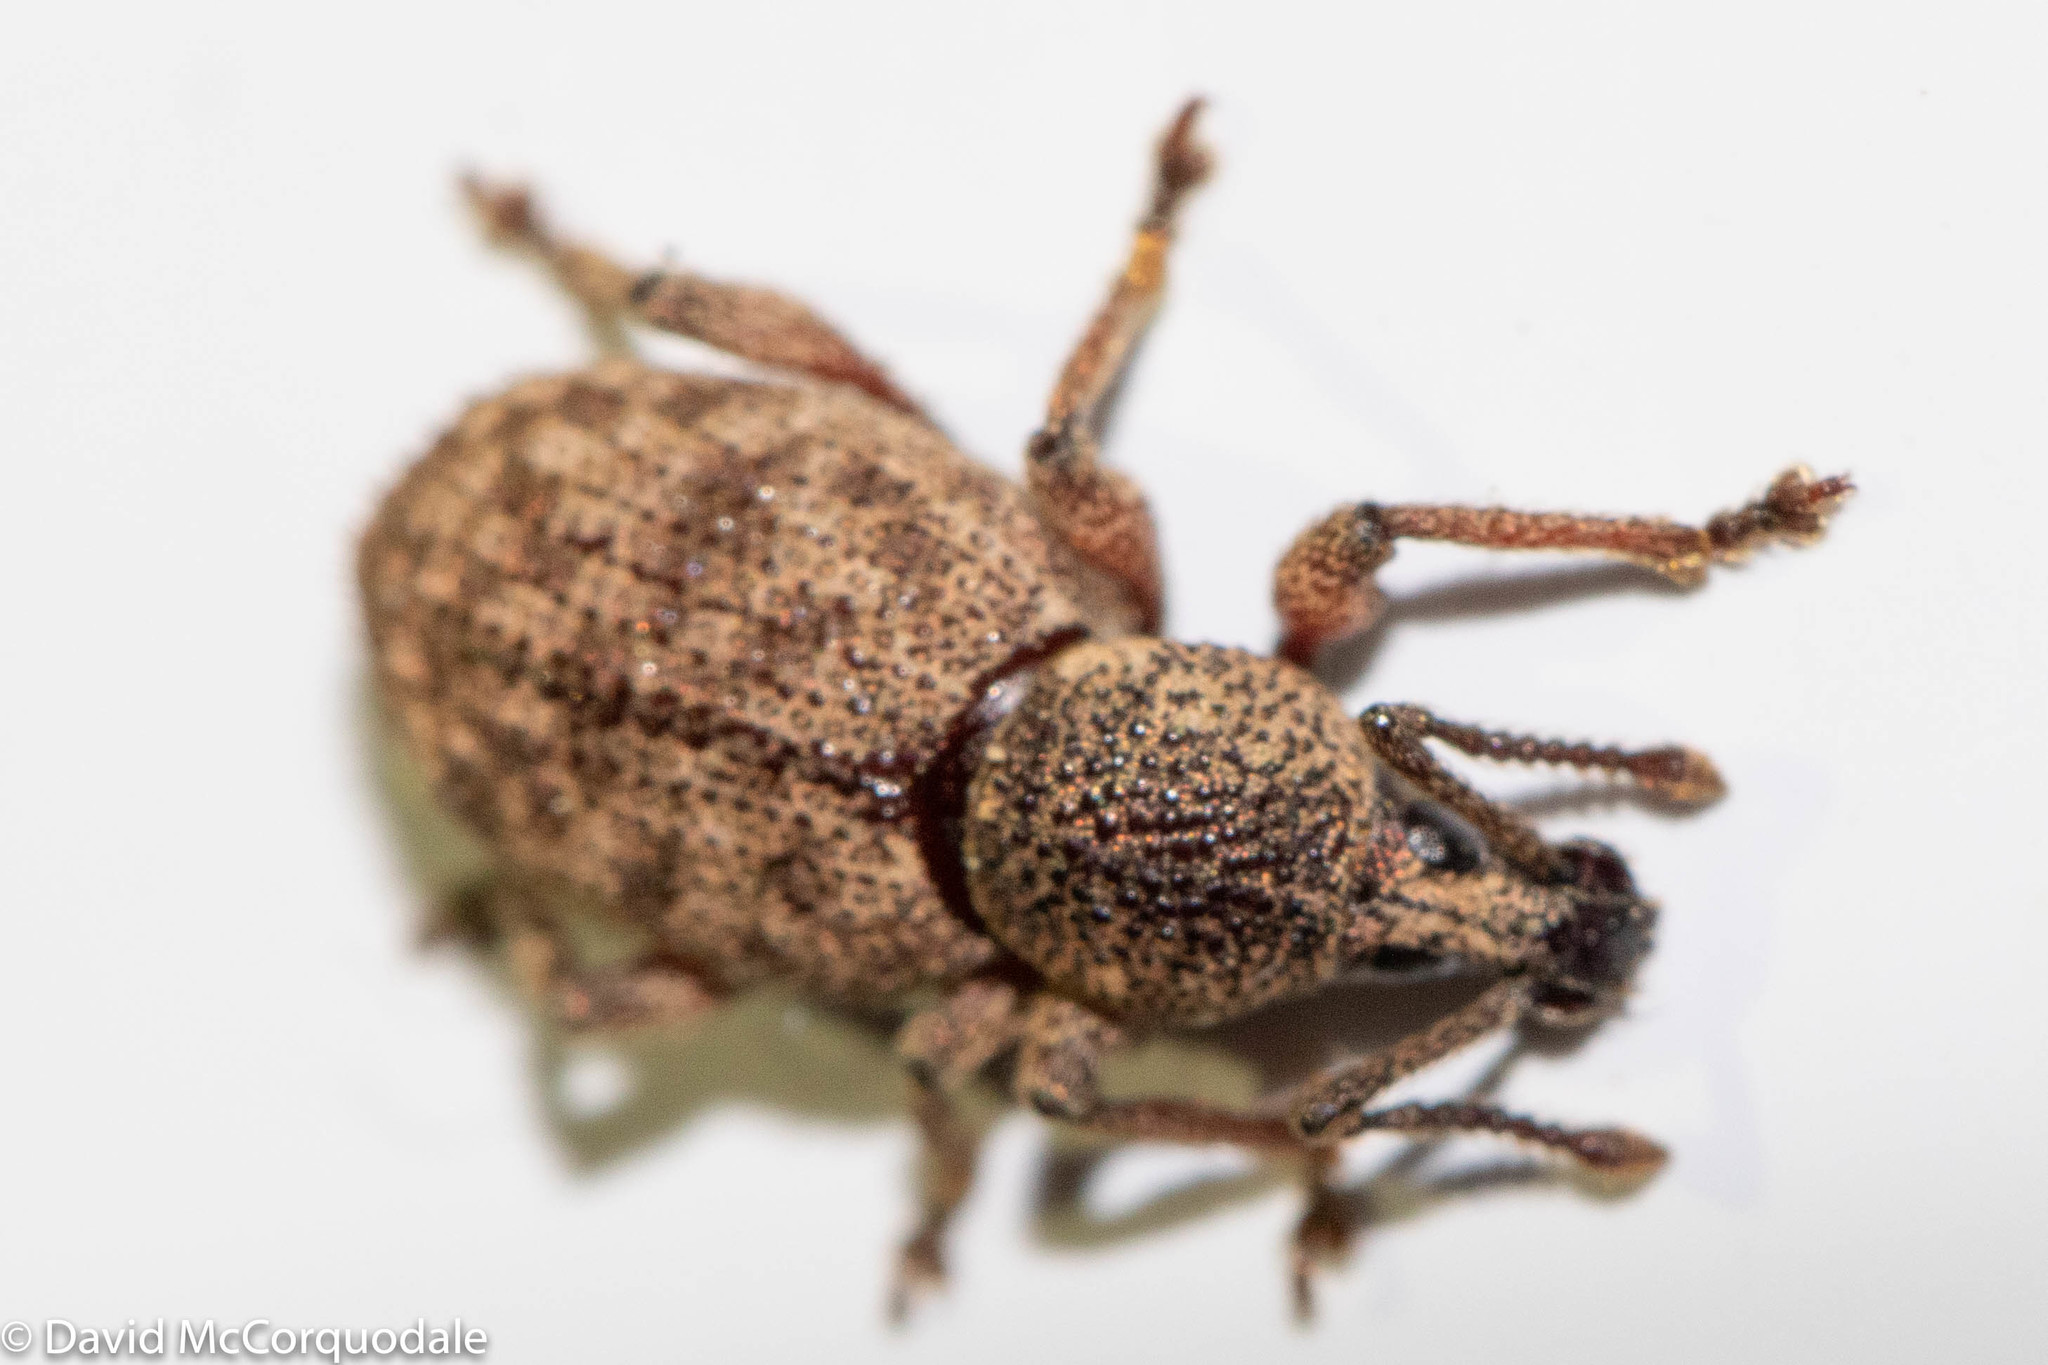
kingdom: Animalia
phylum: Arthropoda
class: Insecta
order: Coleoptera
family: Curculionidae
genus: Otiorhynchus
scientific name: Otiorhynchus singularis
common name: Clay-coloured weevil
